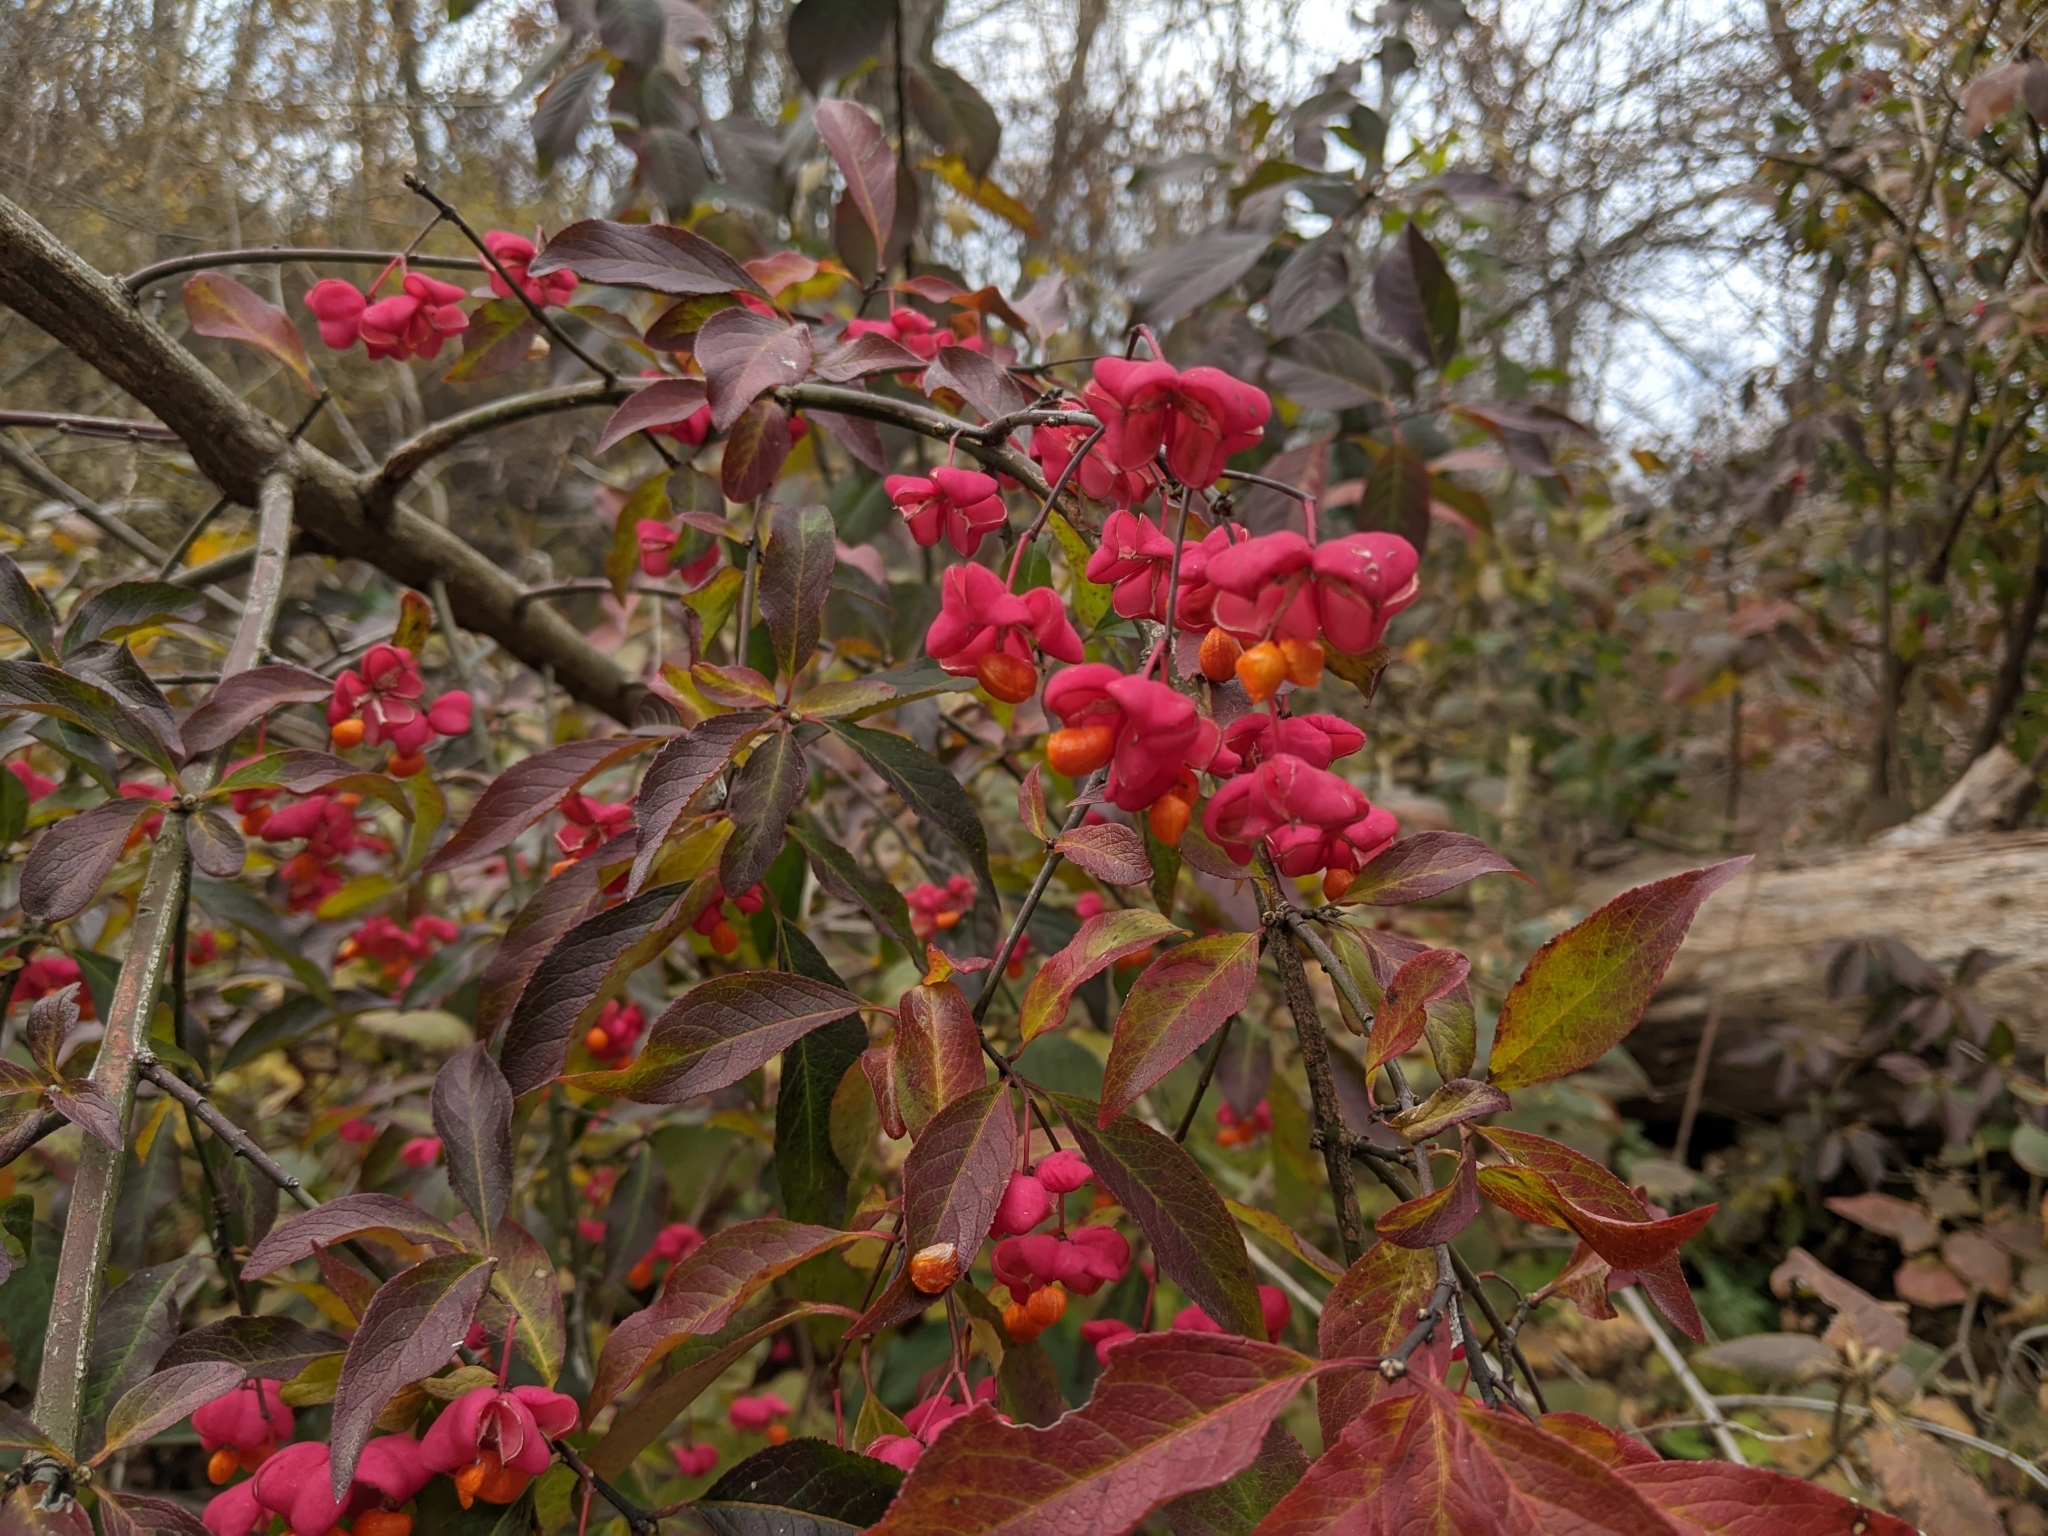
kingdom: Plantae
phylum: Tracheophyta
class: Magnoliopsida
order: Celastrales
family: Celastraceae
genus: Euonymus
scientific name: Euonymus europaeus
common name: Spindle
